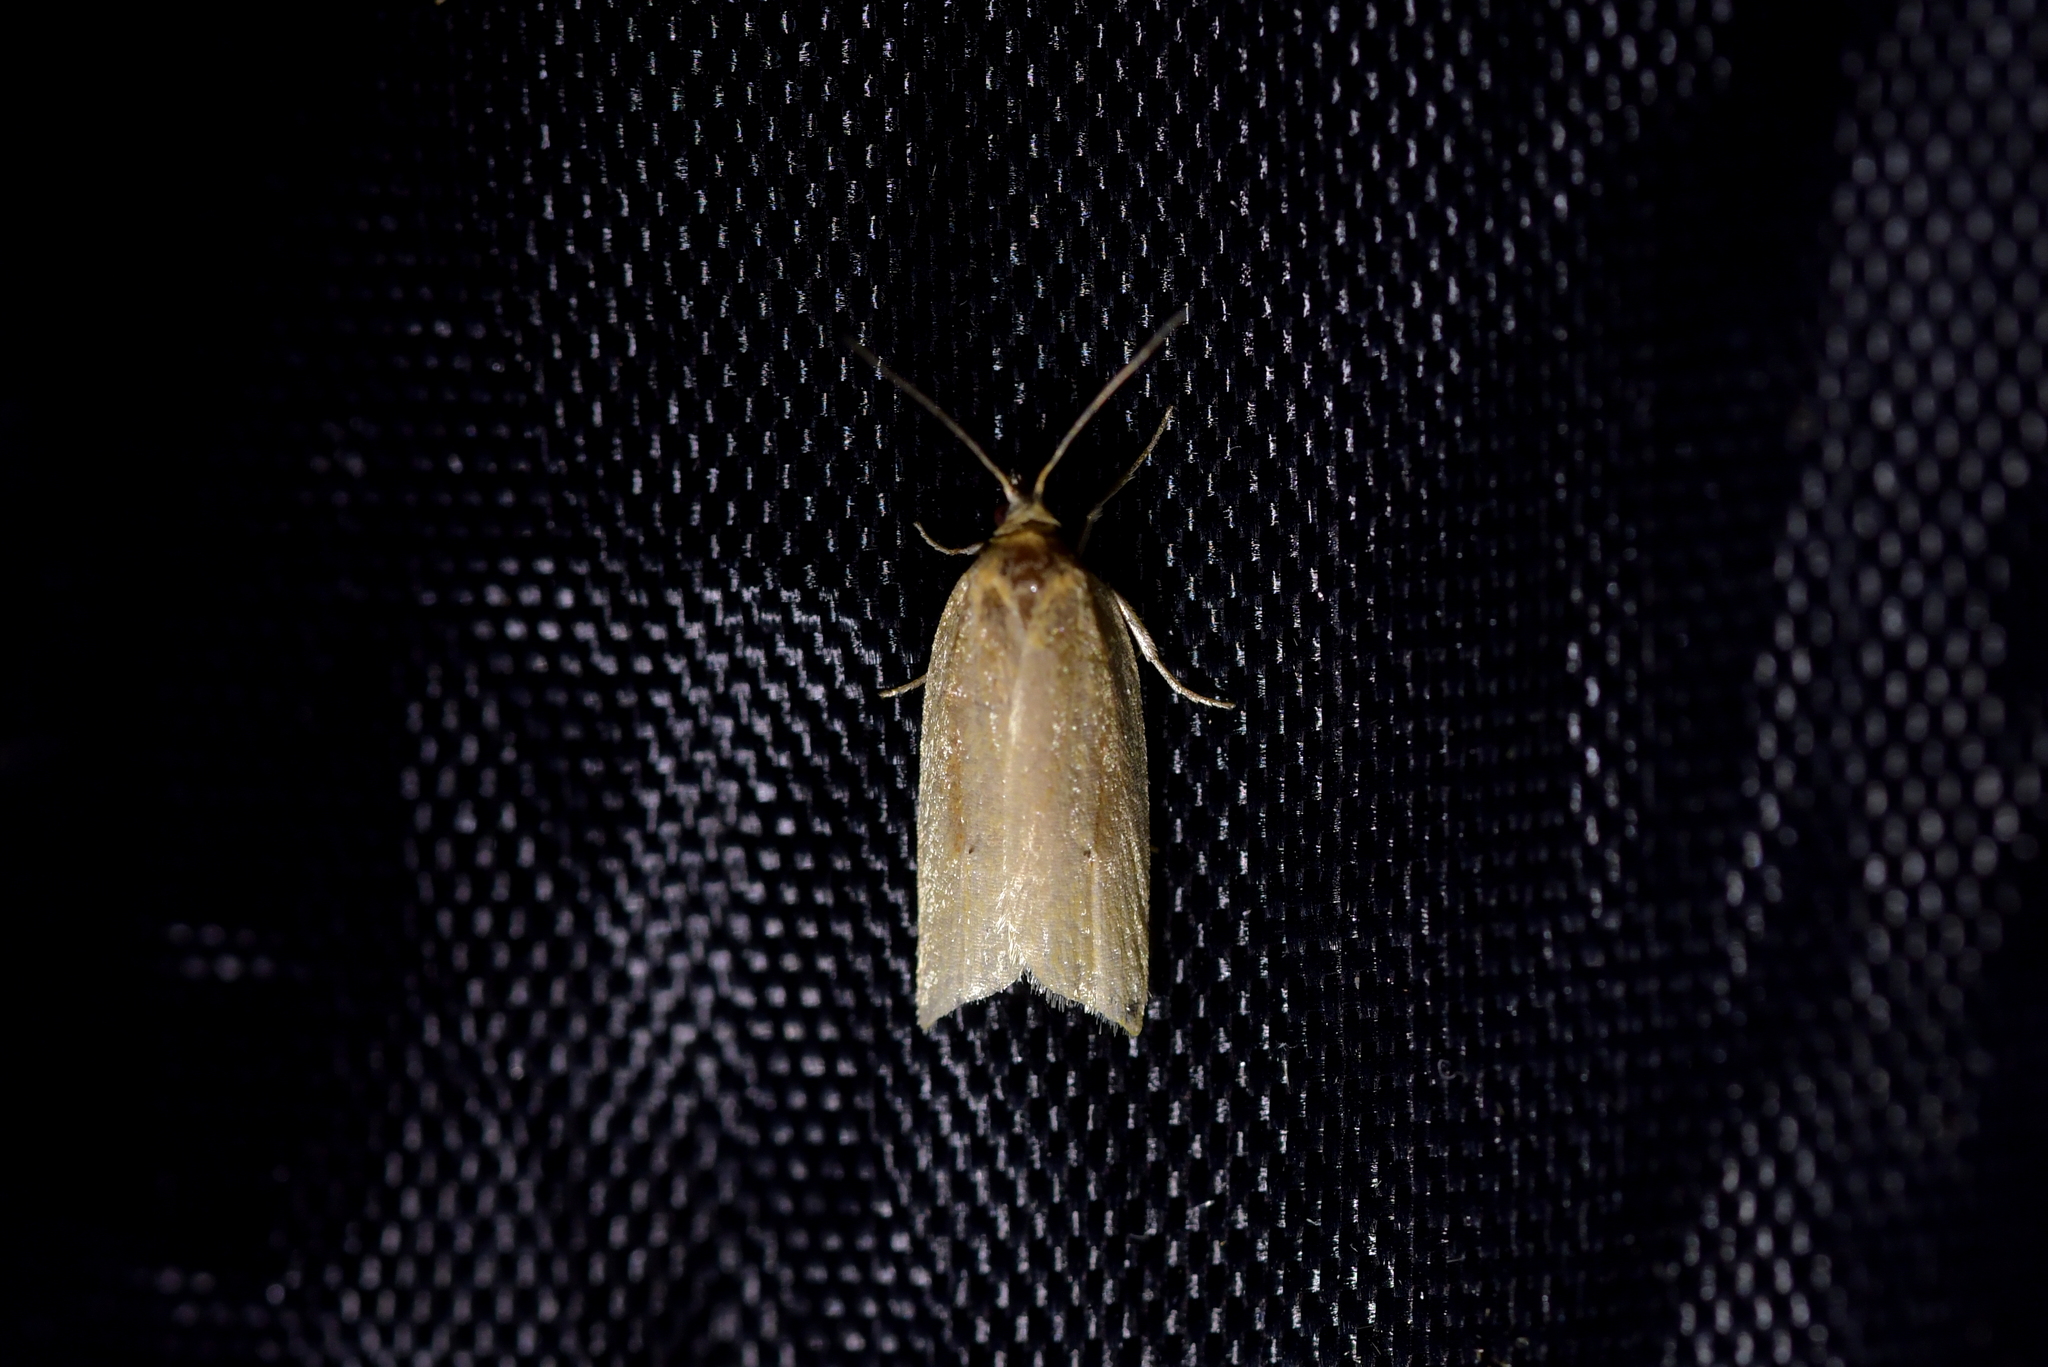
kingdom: Animalia
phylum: Arthropoda
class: Insecta
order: Lepidoptera
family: Tortricidae
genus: Clepsis
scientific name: Clepsis
